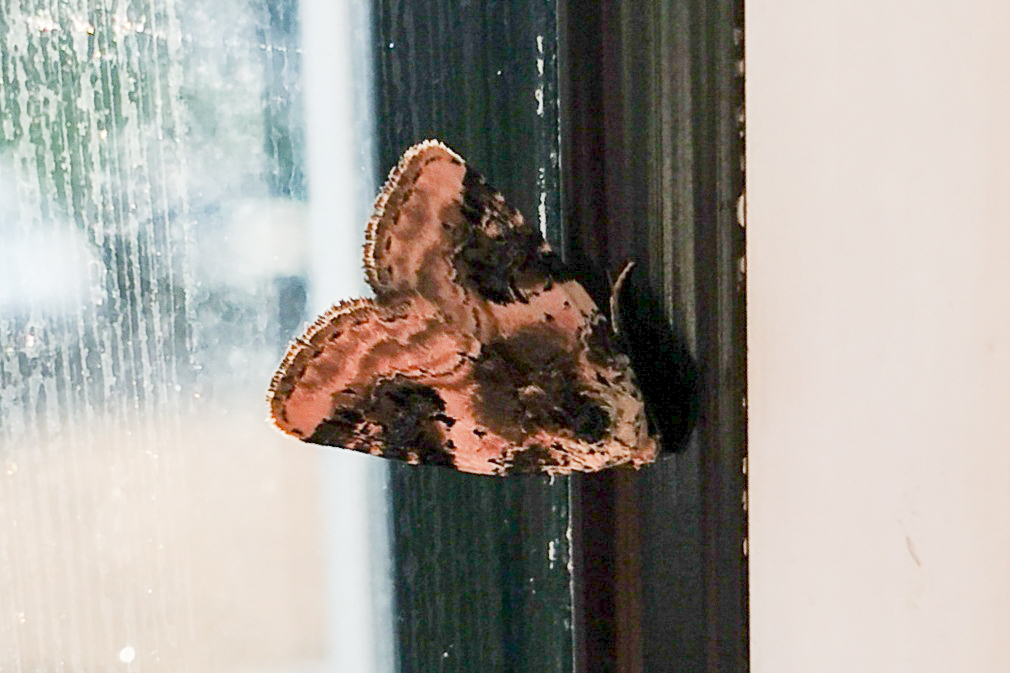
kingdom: Animalia
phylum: Arthropoda
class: Insecta
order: Lepidoptera
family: Noctuidae
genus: Pseudeustrotia
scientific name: Pseudeustrotia candidula
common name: Shining marbled
